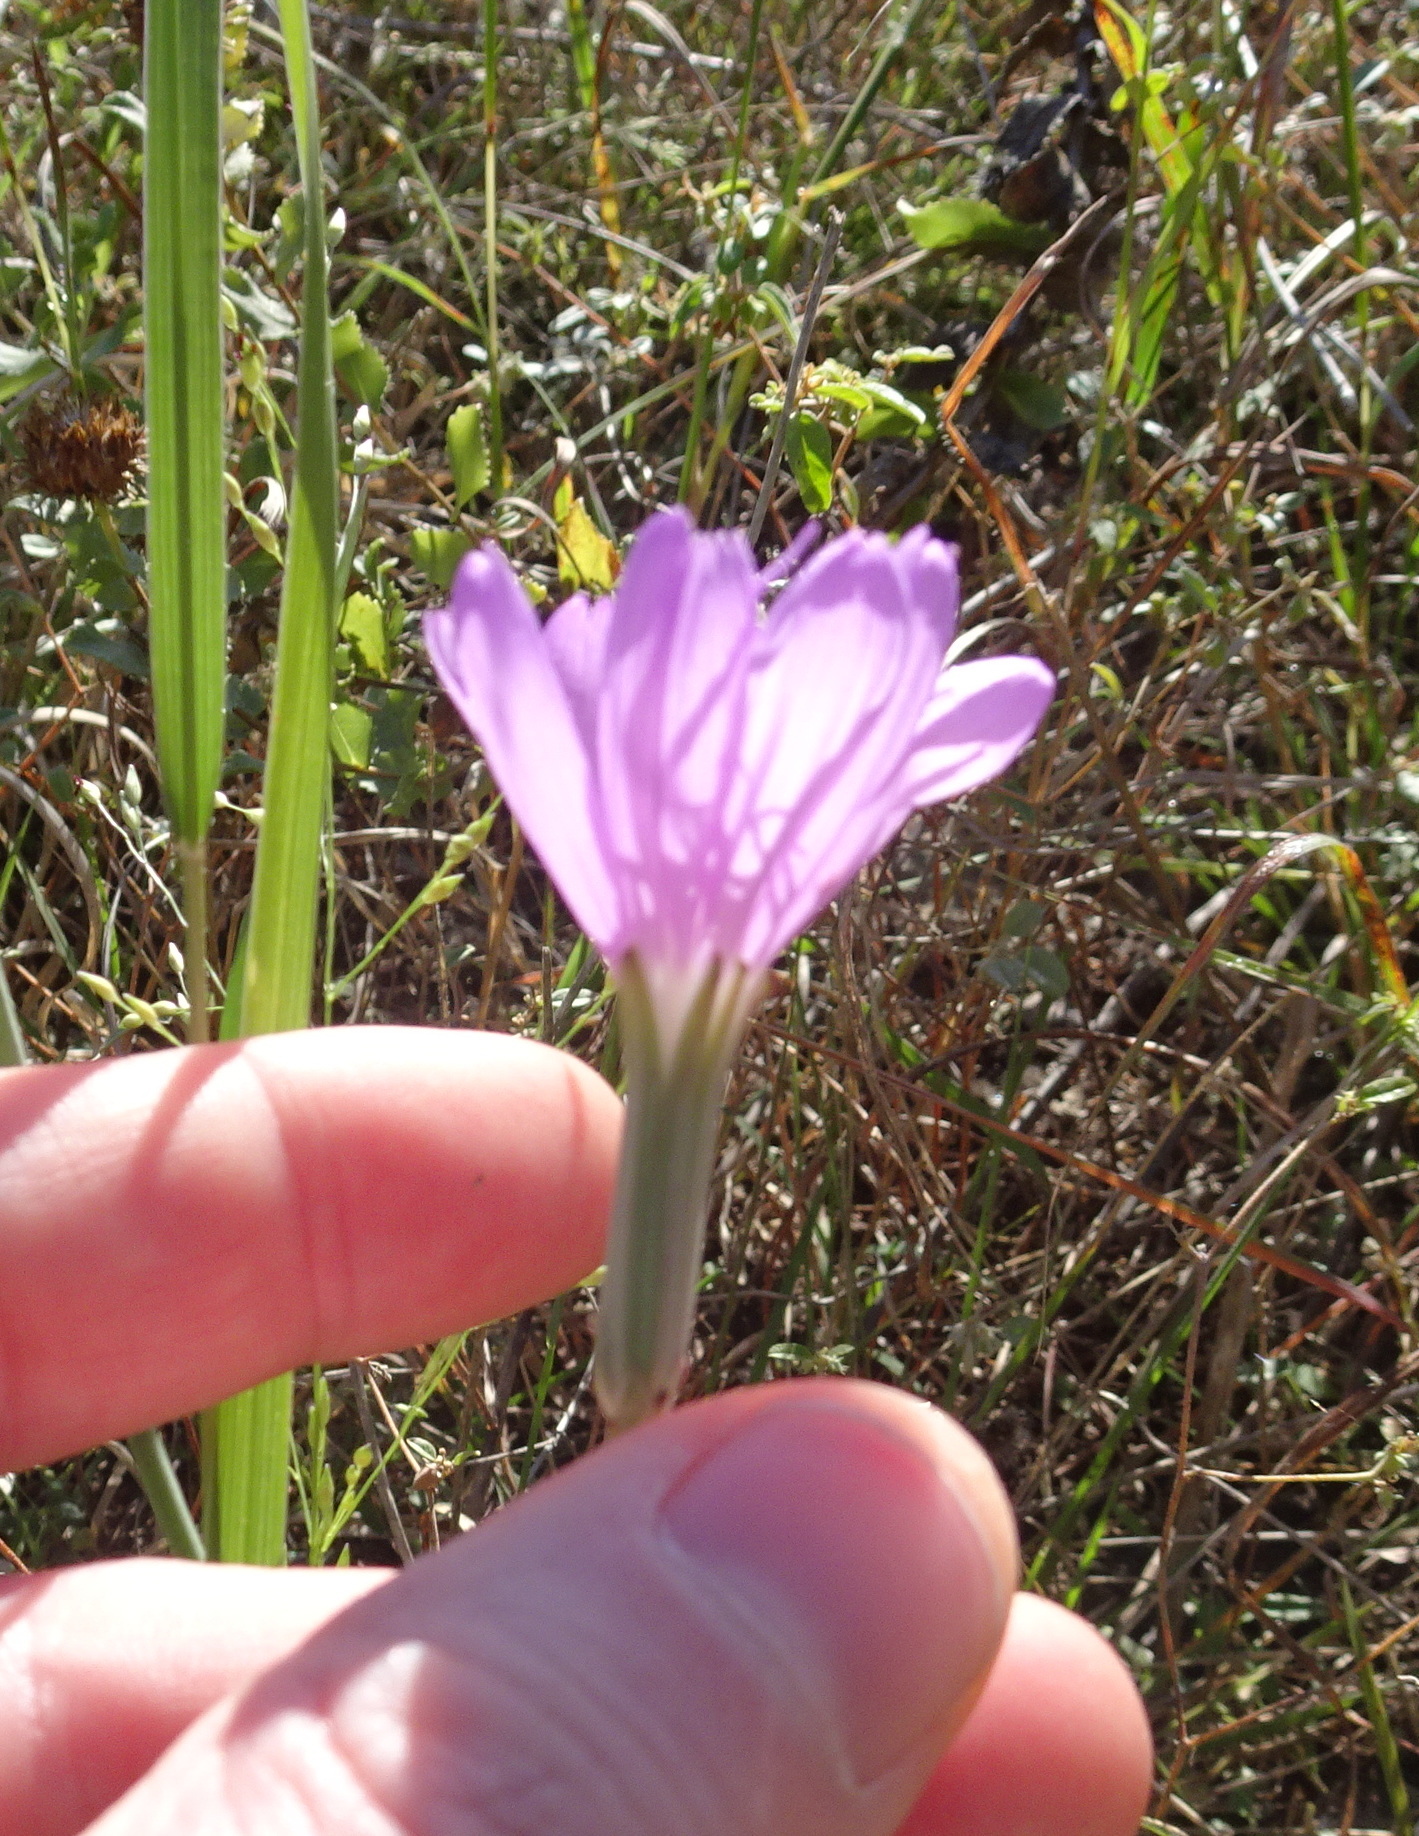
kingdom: Plantae
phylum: Tracheophyta
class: Magnoliopsida
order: Asterales
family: Asteraceae
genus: Lygodesmia
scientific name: Lygodesmia texana
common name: Texas skeleton-plant
